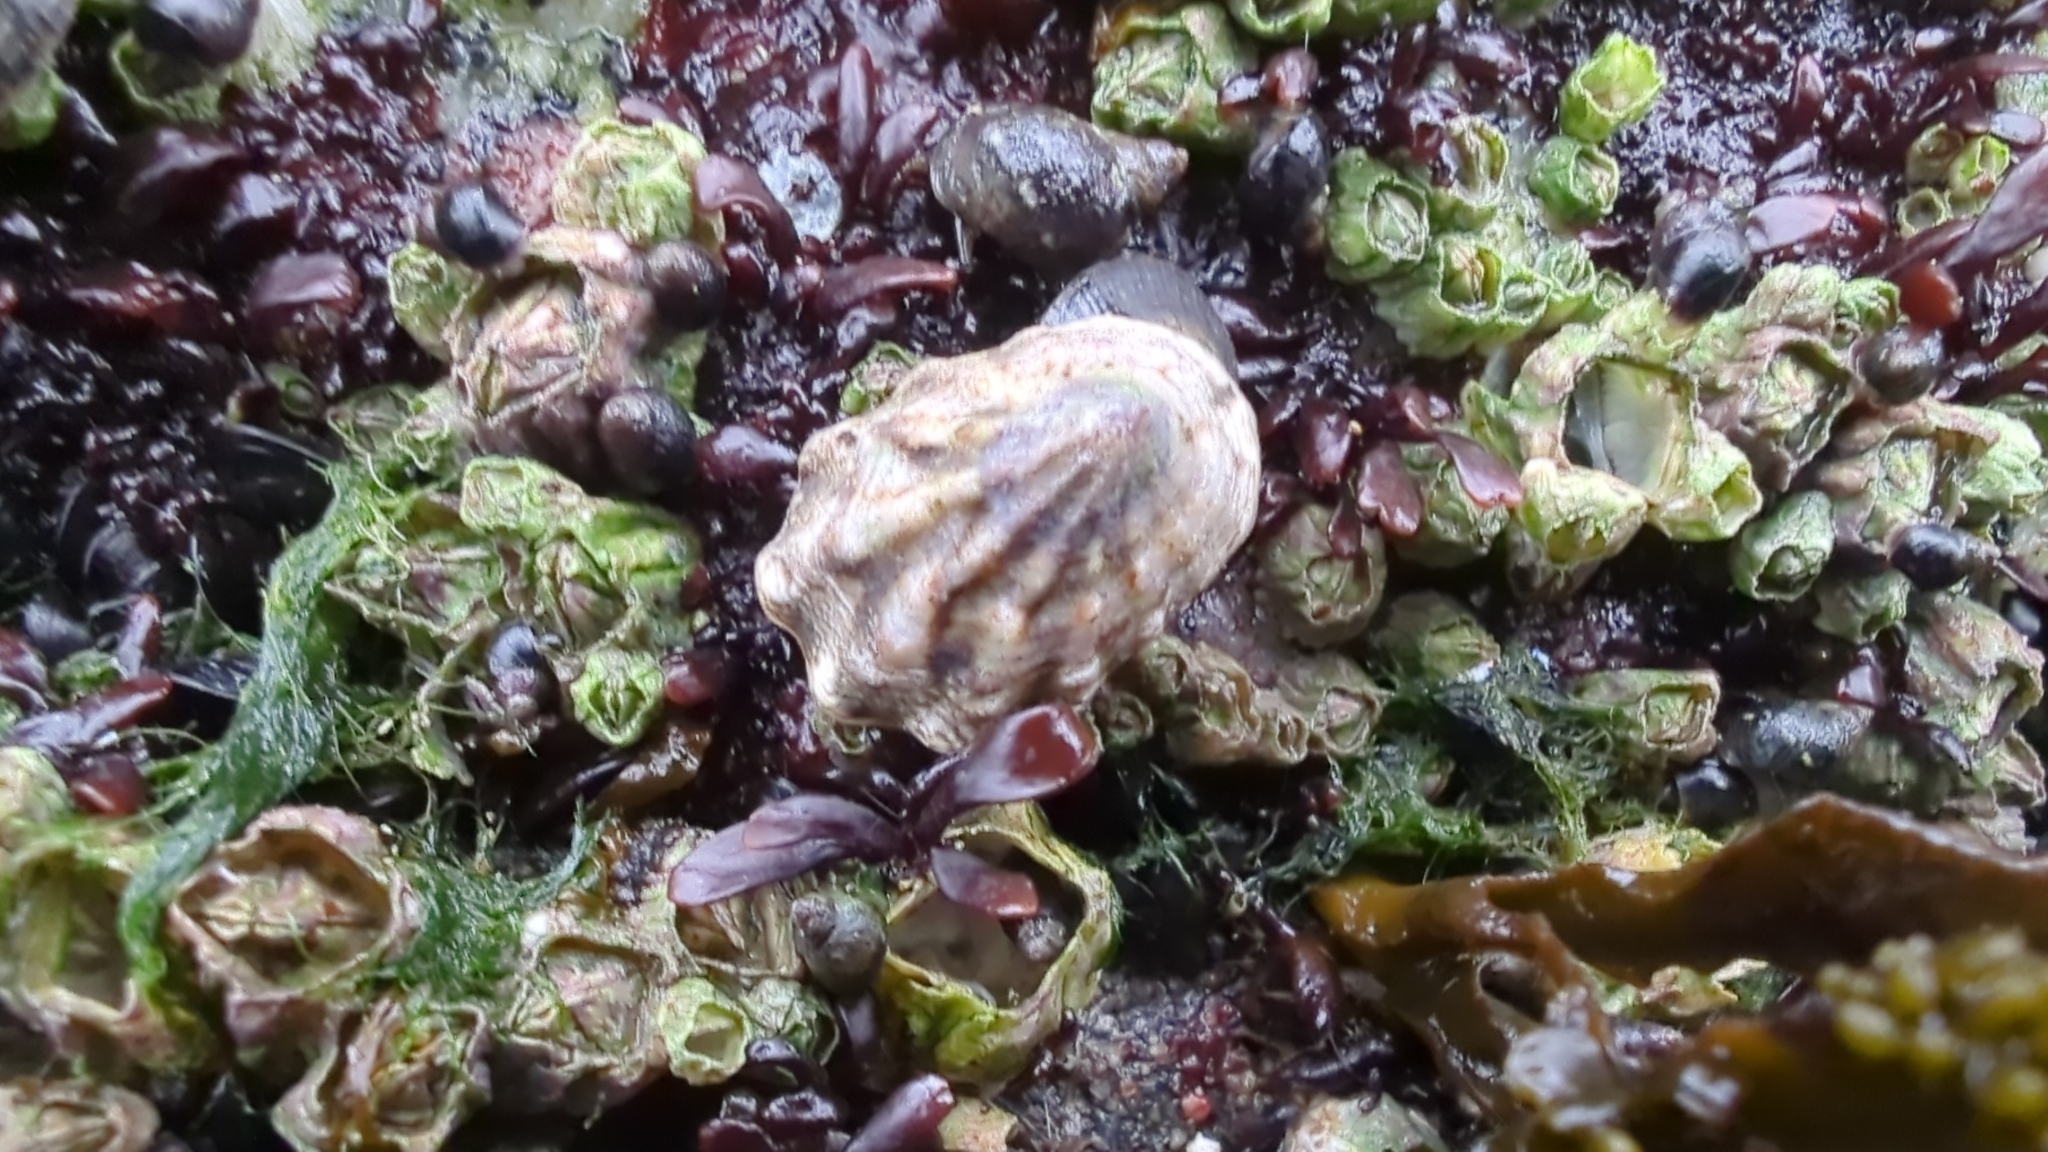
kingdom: Animalia
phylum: Mollusca
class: Gastropoda
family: Lottiidae
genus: Lottia
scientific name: Lottia digitalis
